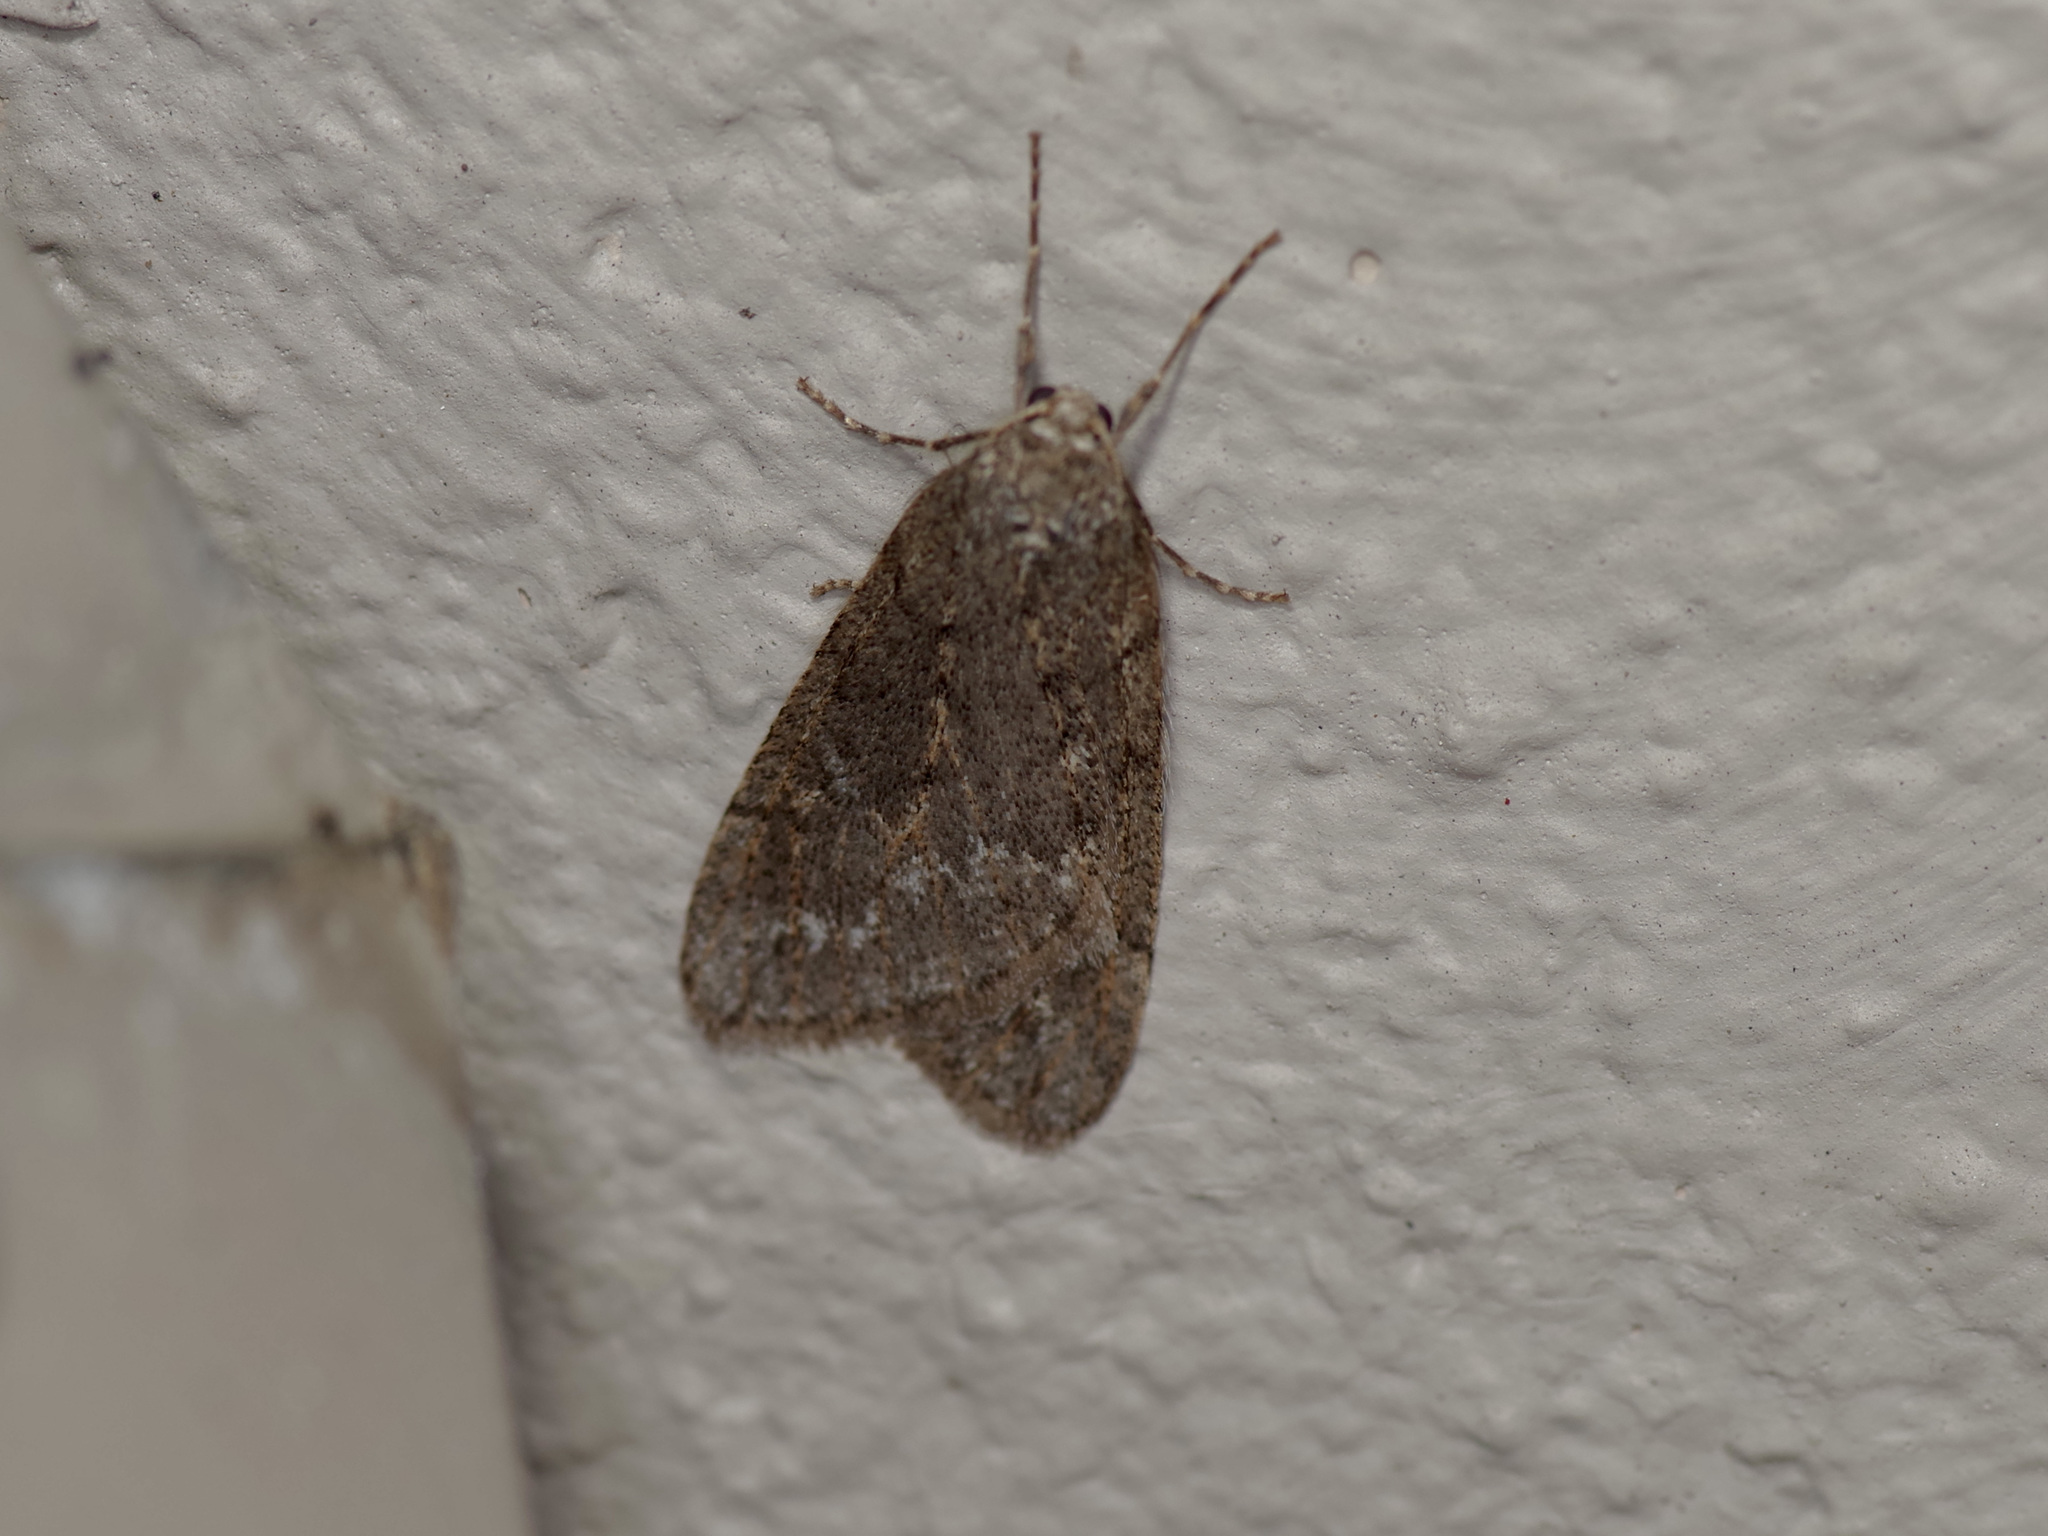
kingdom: Animalia
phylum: Arthropoda
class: Insecta
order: Lepidoptera
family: Geometridae
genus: Paleacrita
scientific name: Paleacrita vernata
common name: Spring cankerworm
